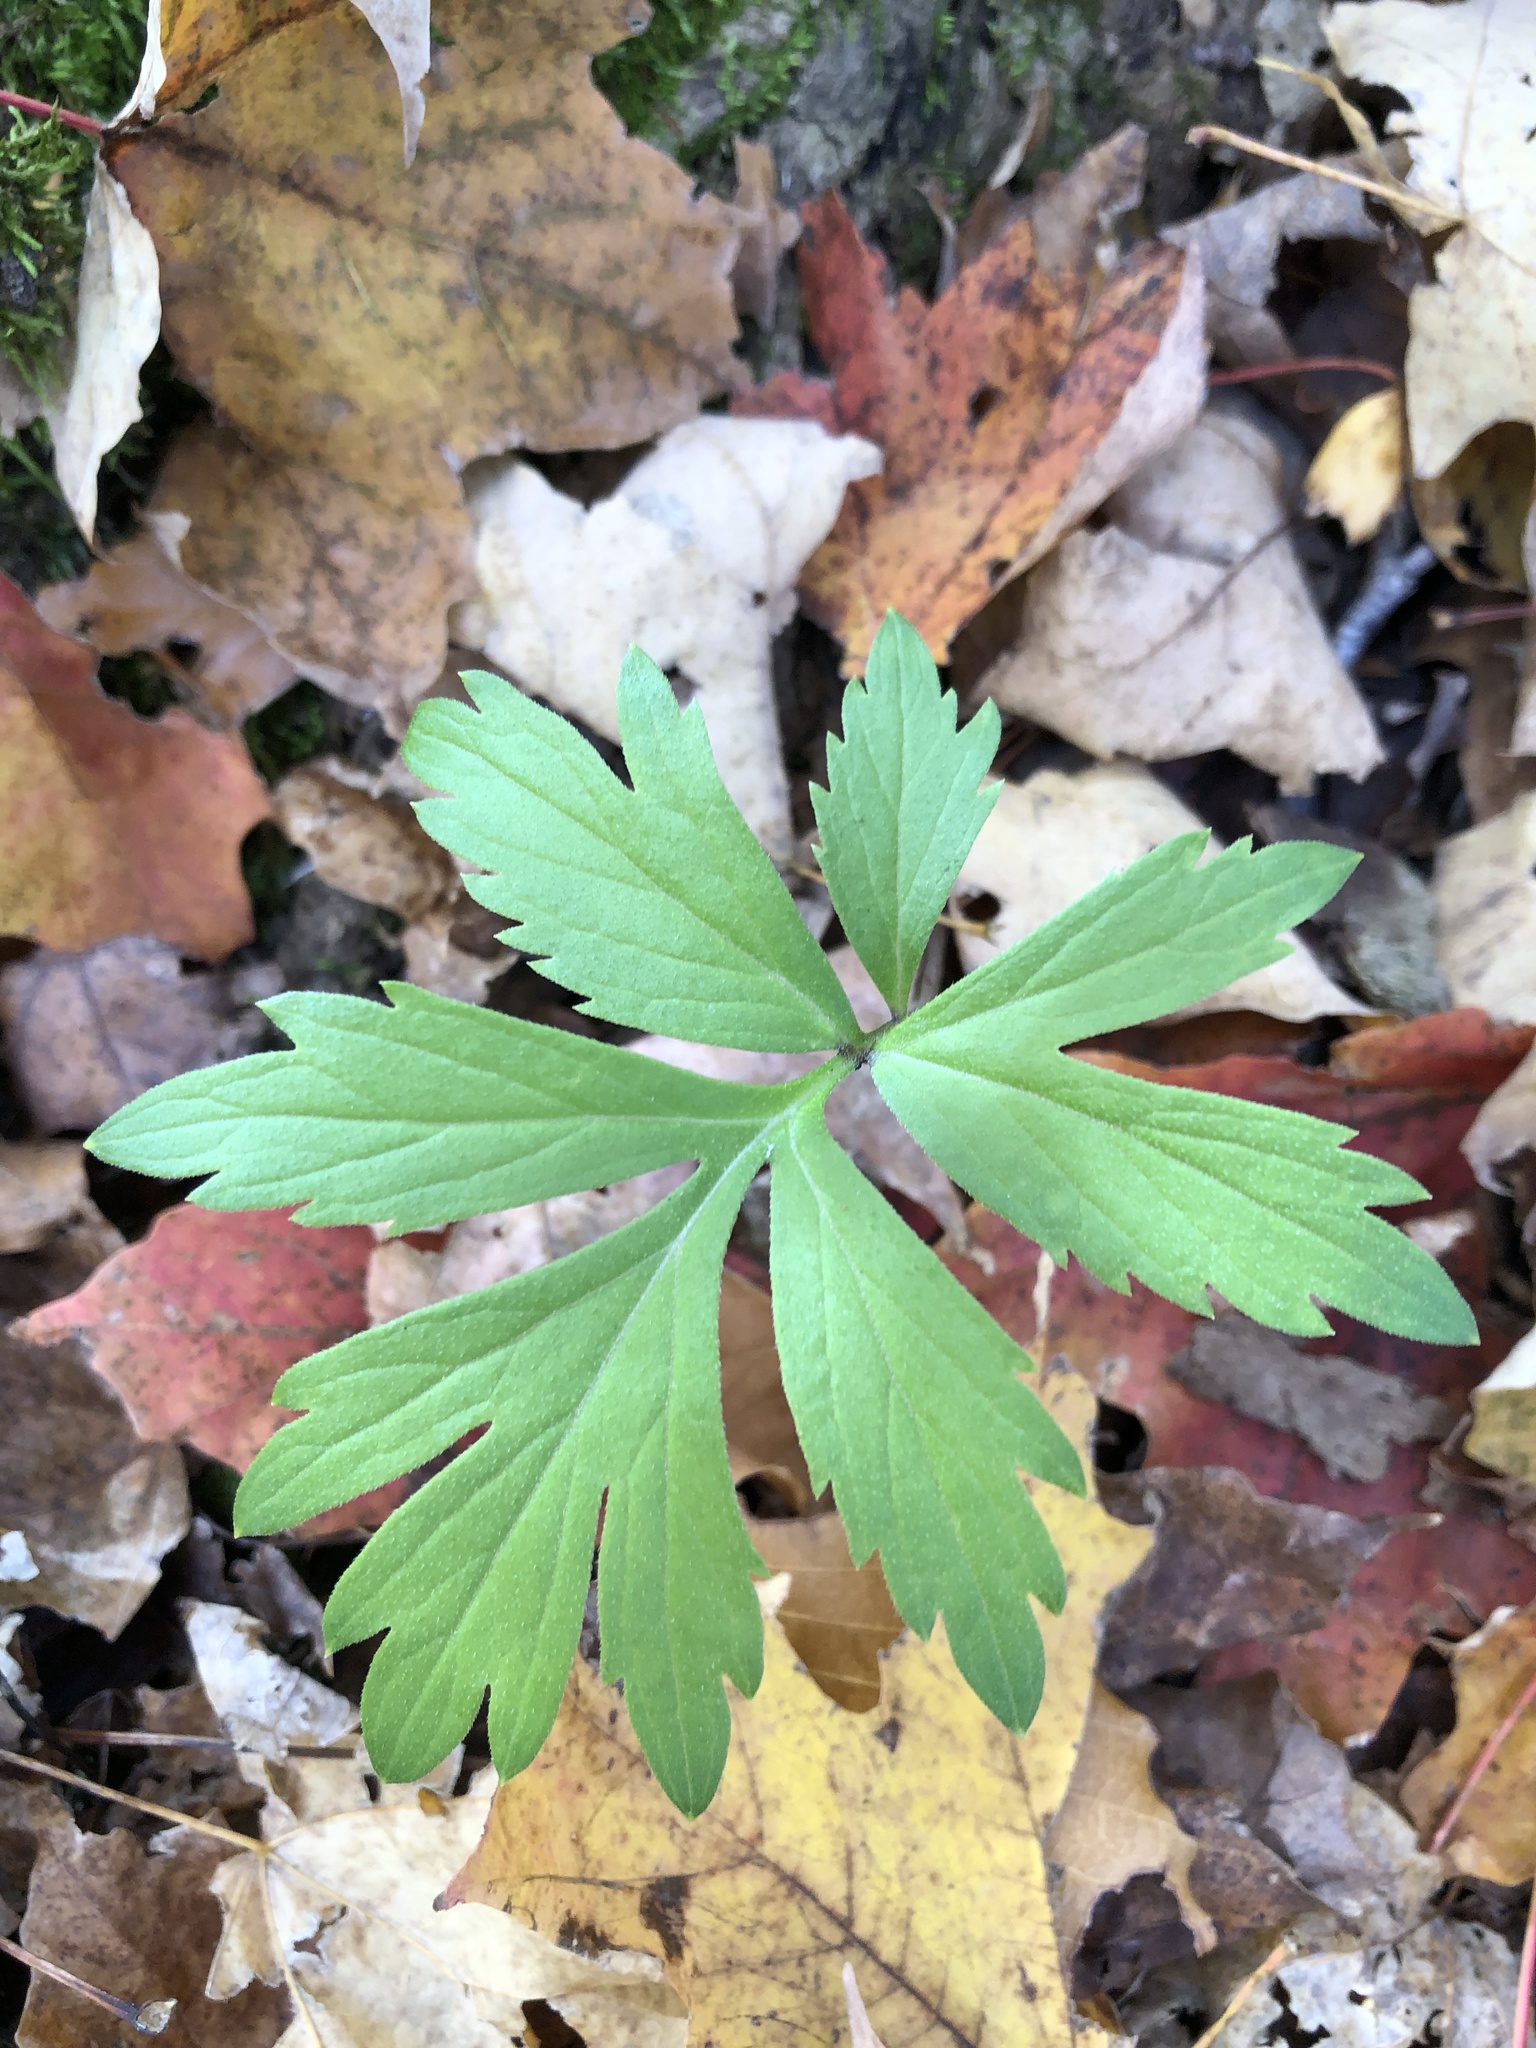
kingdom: Plantae
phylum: Tracheophyta
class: Magnoliopsida
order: Boraginales
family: Hydrophyllaceae
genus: Hydrophyllum
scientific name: Hydrophyllum virginianum
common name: Virginia waterleaf
